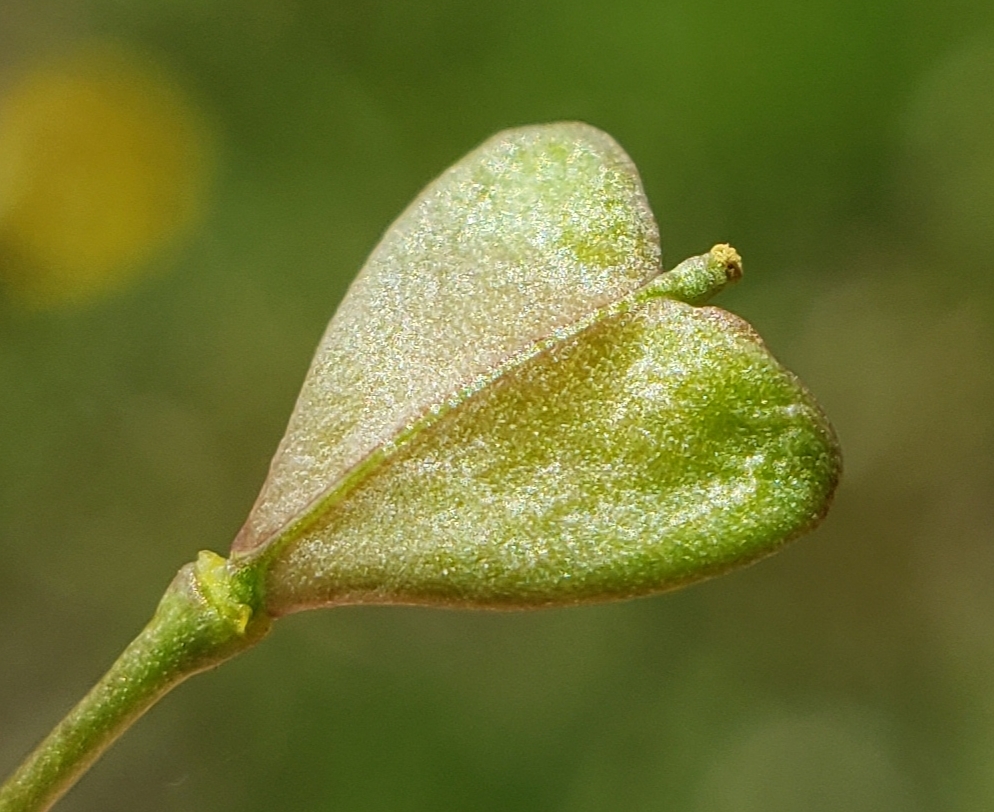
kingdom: Plantae
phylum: Tracheophyta
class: Magnoliopsida
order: Brassicales
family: Brassicaceae
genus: Capsella
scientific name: Capsella bursa-pastoris
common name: Shepherd's purse
